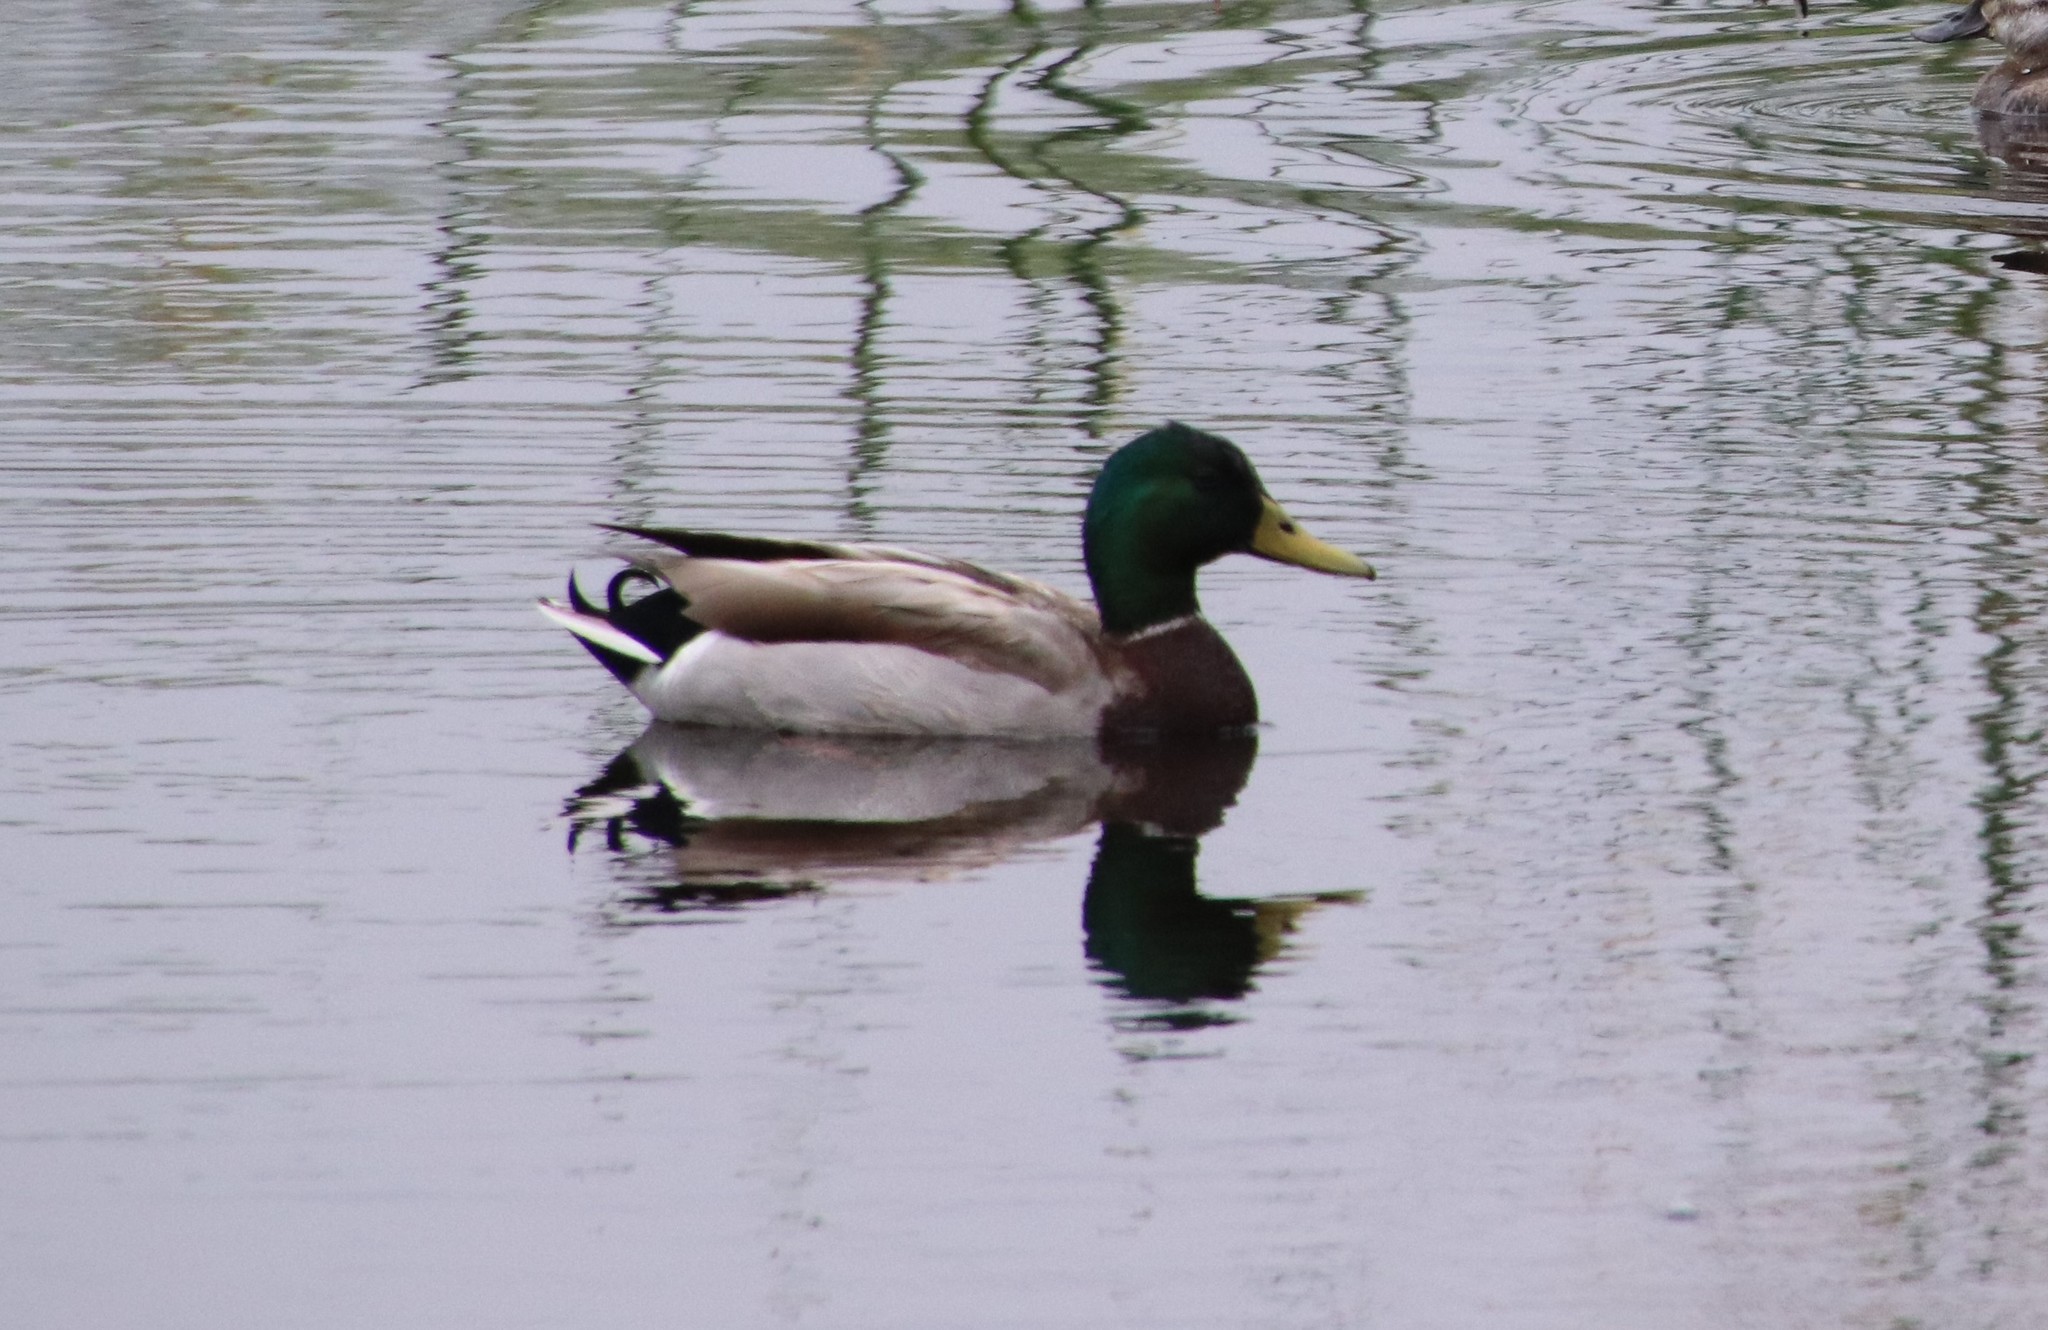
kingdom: Animalia
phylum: Chordata
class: Aves
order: Anseriformes
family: Anatidae
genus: Anas
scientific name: Anas platyrhynchos
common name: Mallard
